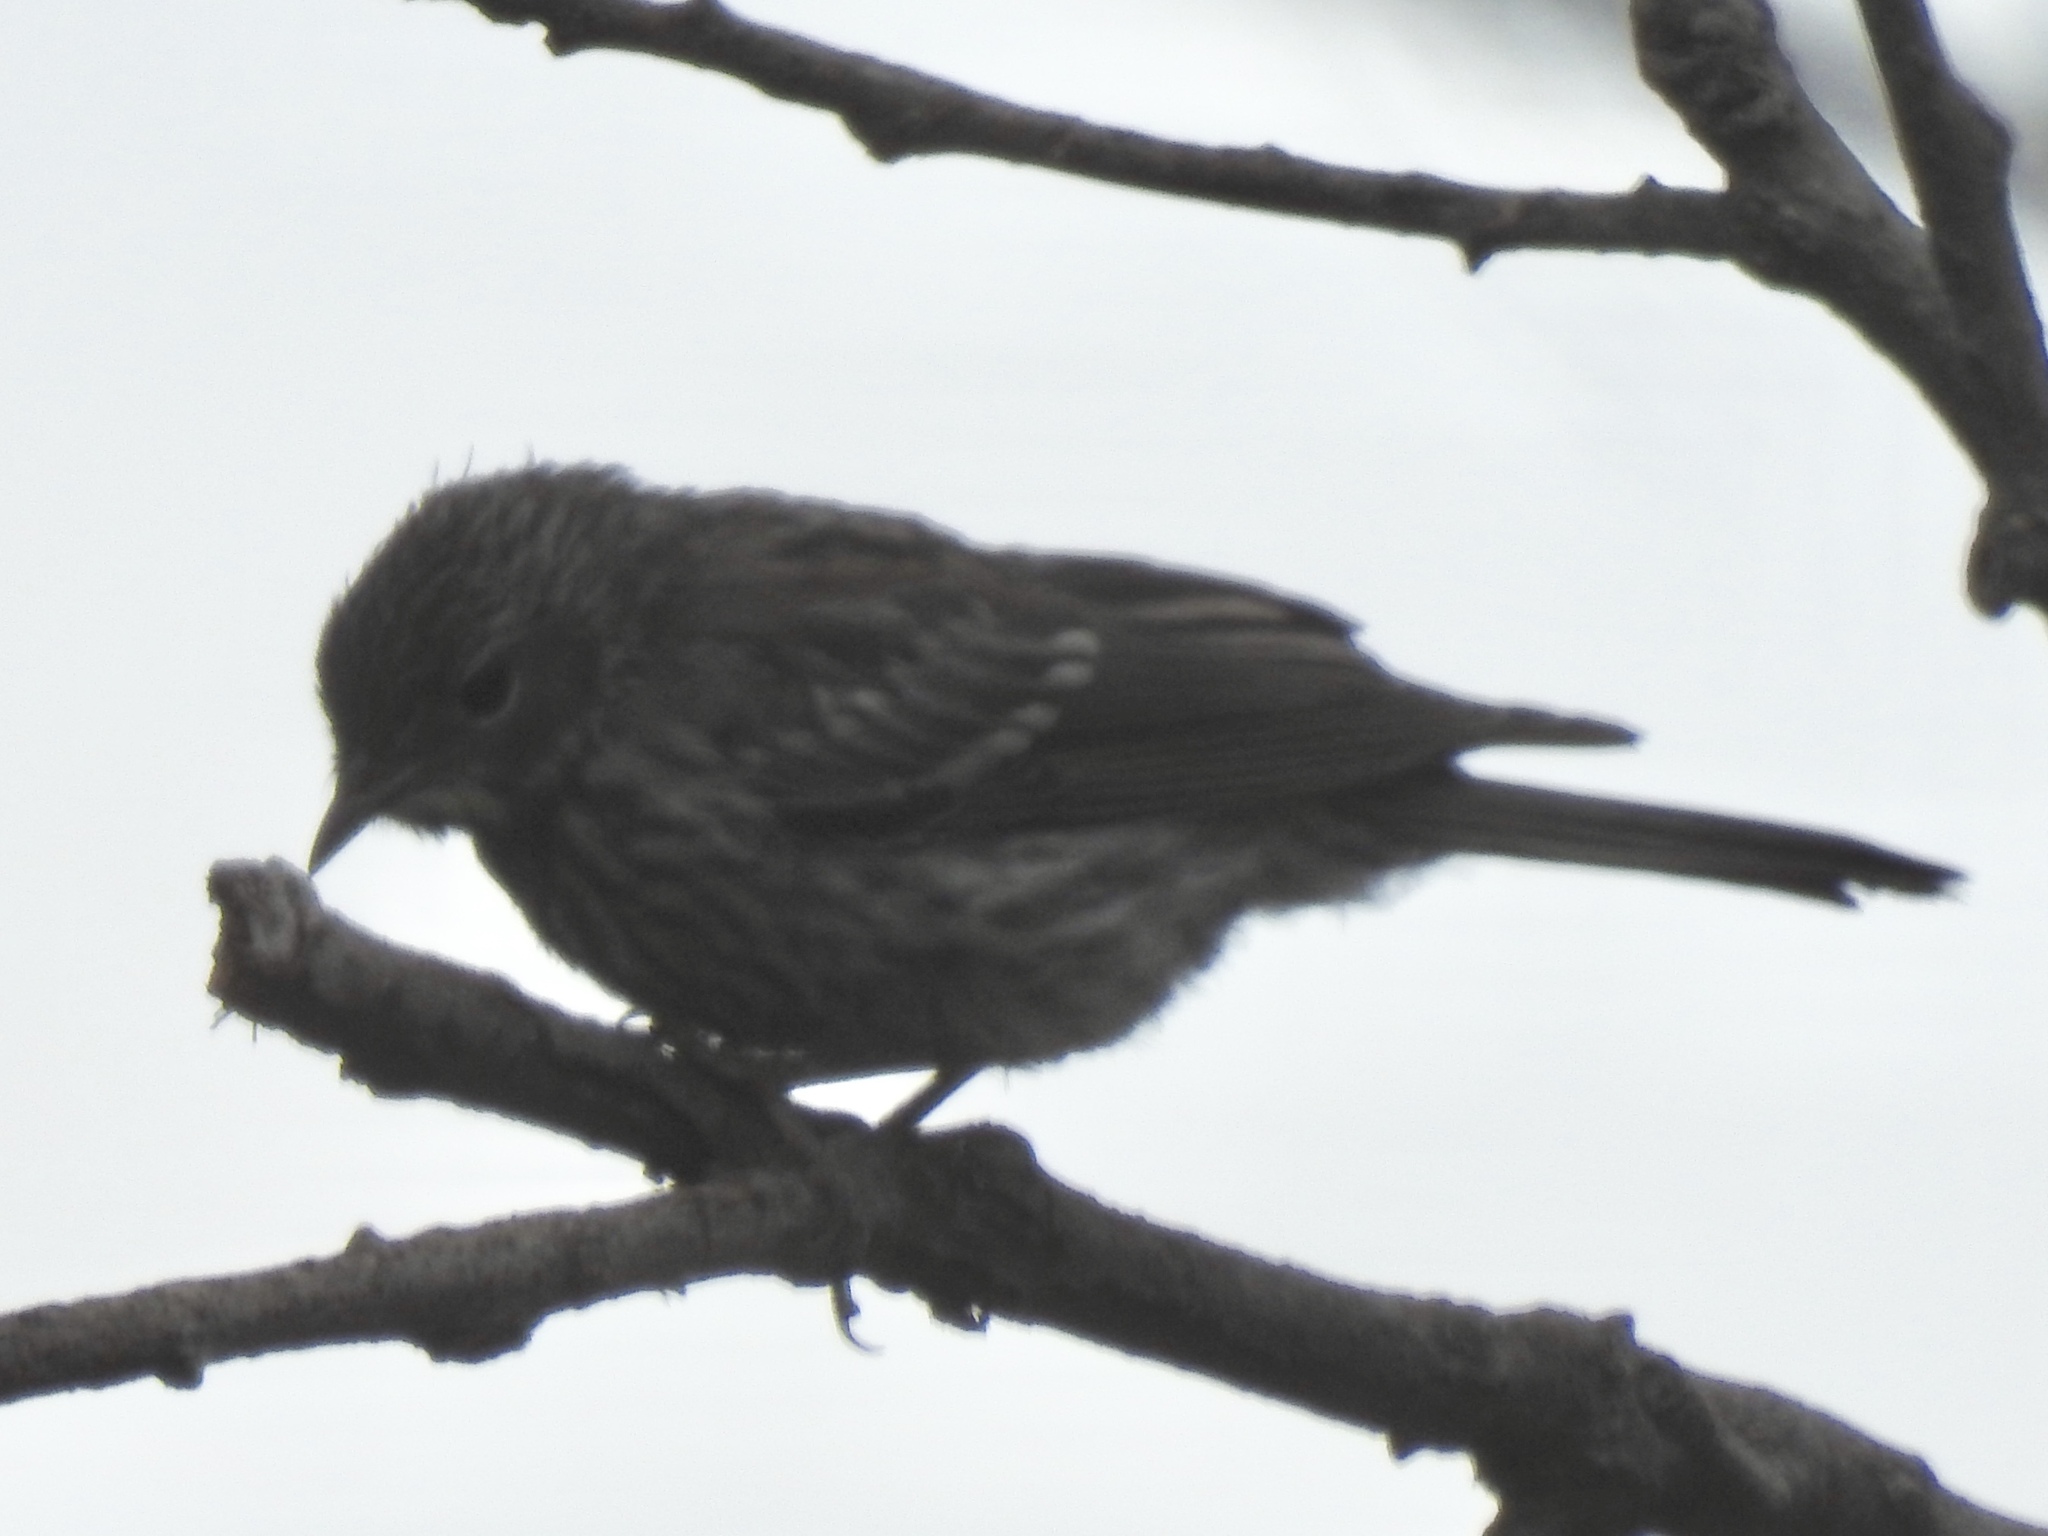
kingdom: Animalia
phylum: Chordata
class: Aves
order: Passeriformes
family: Parulidae
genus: Setophaga
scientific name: Setophaga coronata
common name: Myrtle warbler
